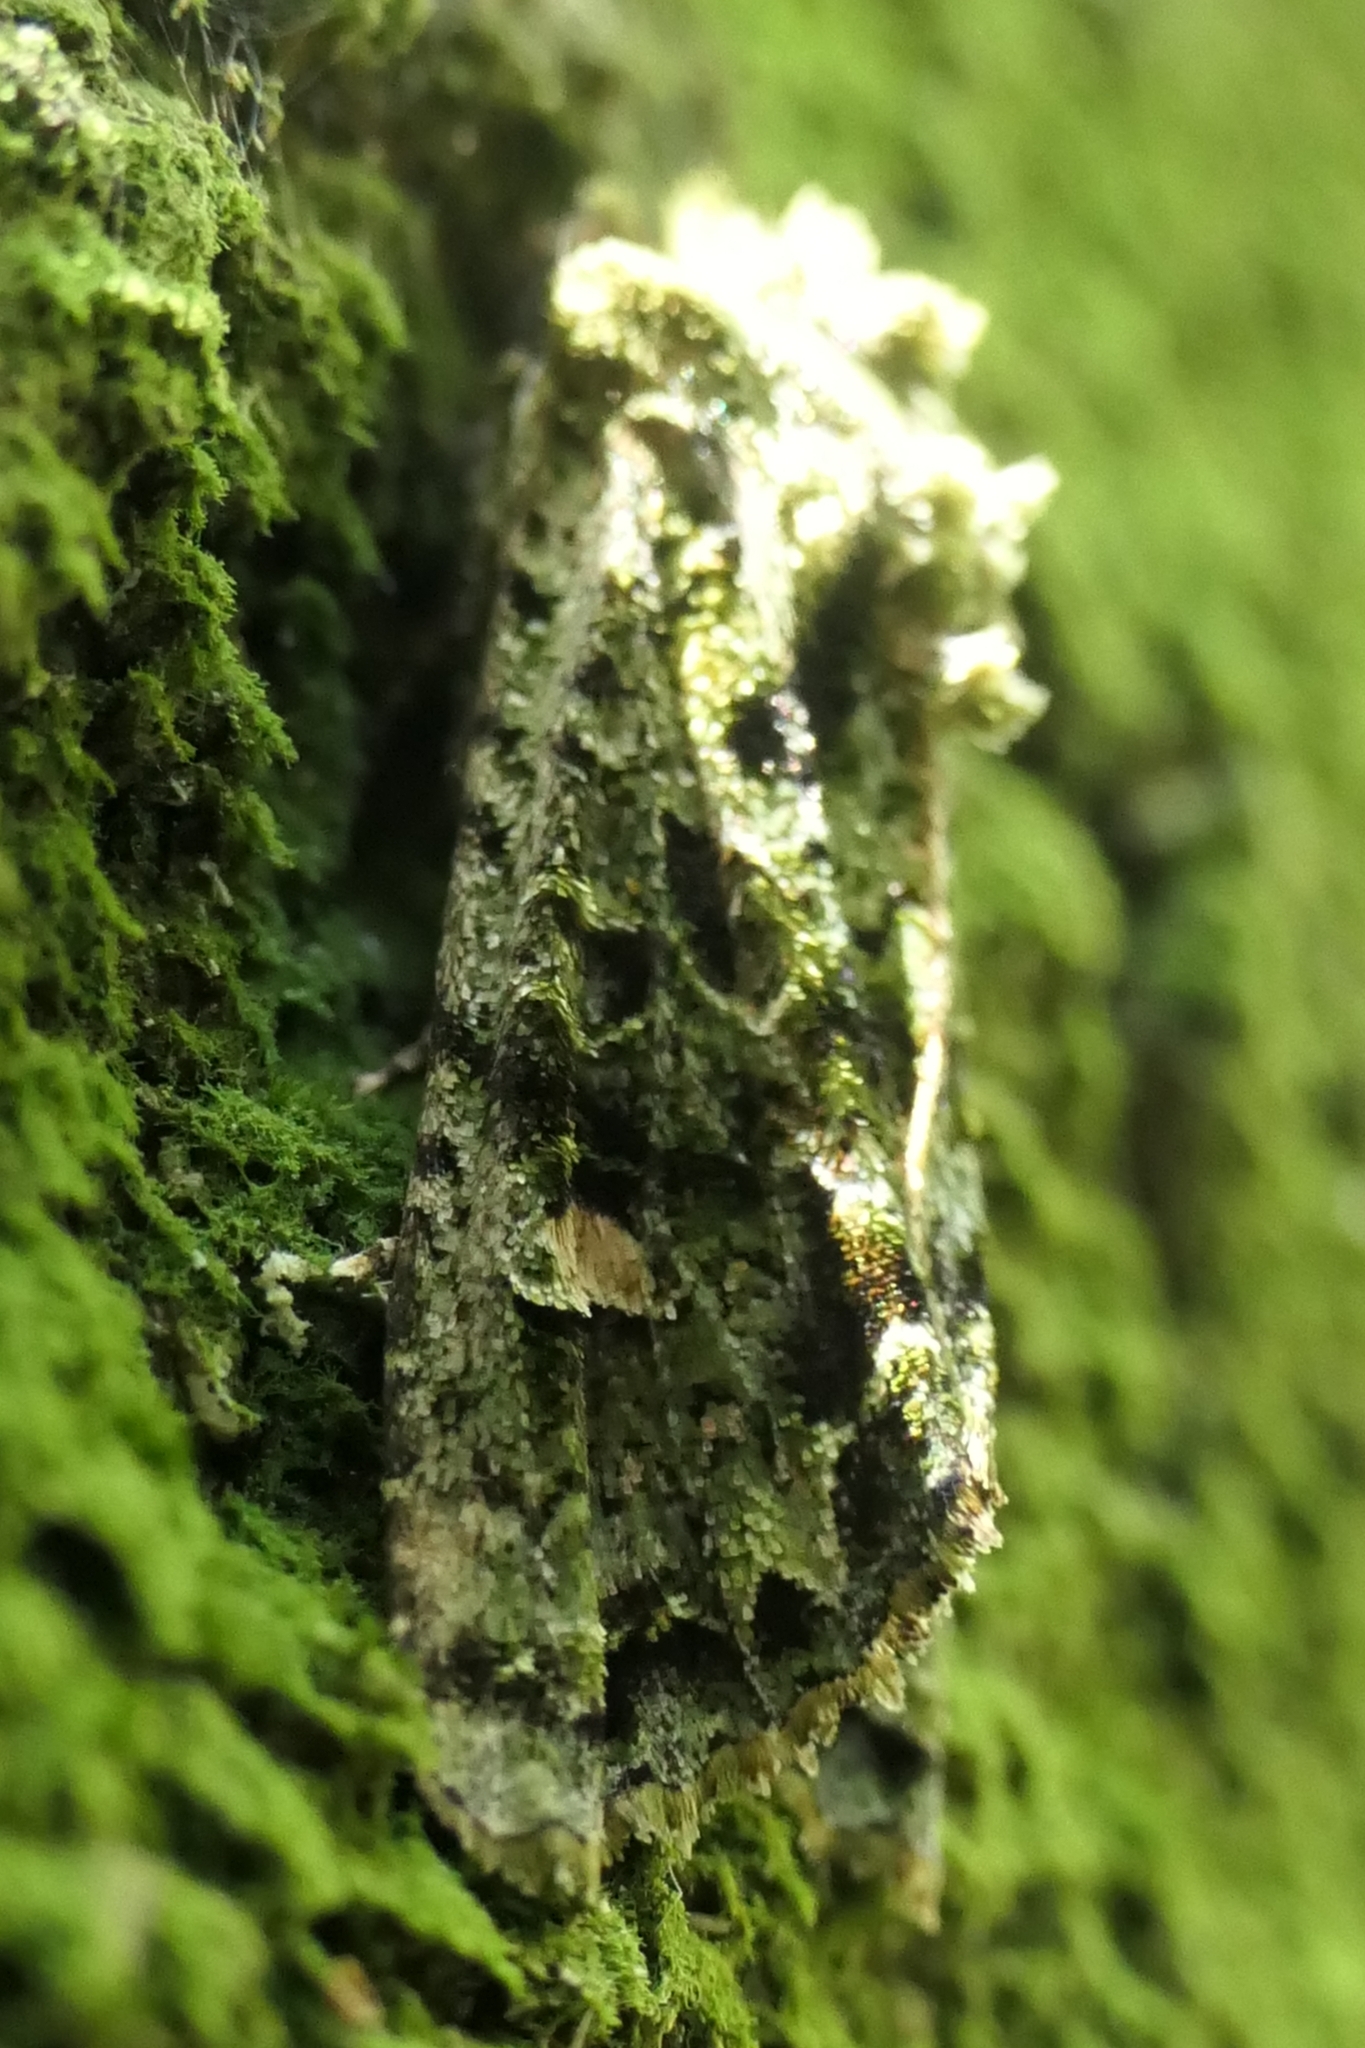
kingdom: Animalia
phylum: Arthropoda
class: Insecta
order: Lepidoptera
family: Noctuidae
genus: Ichneutica
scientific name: Ichneutica
